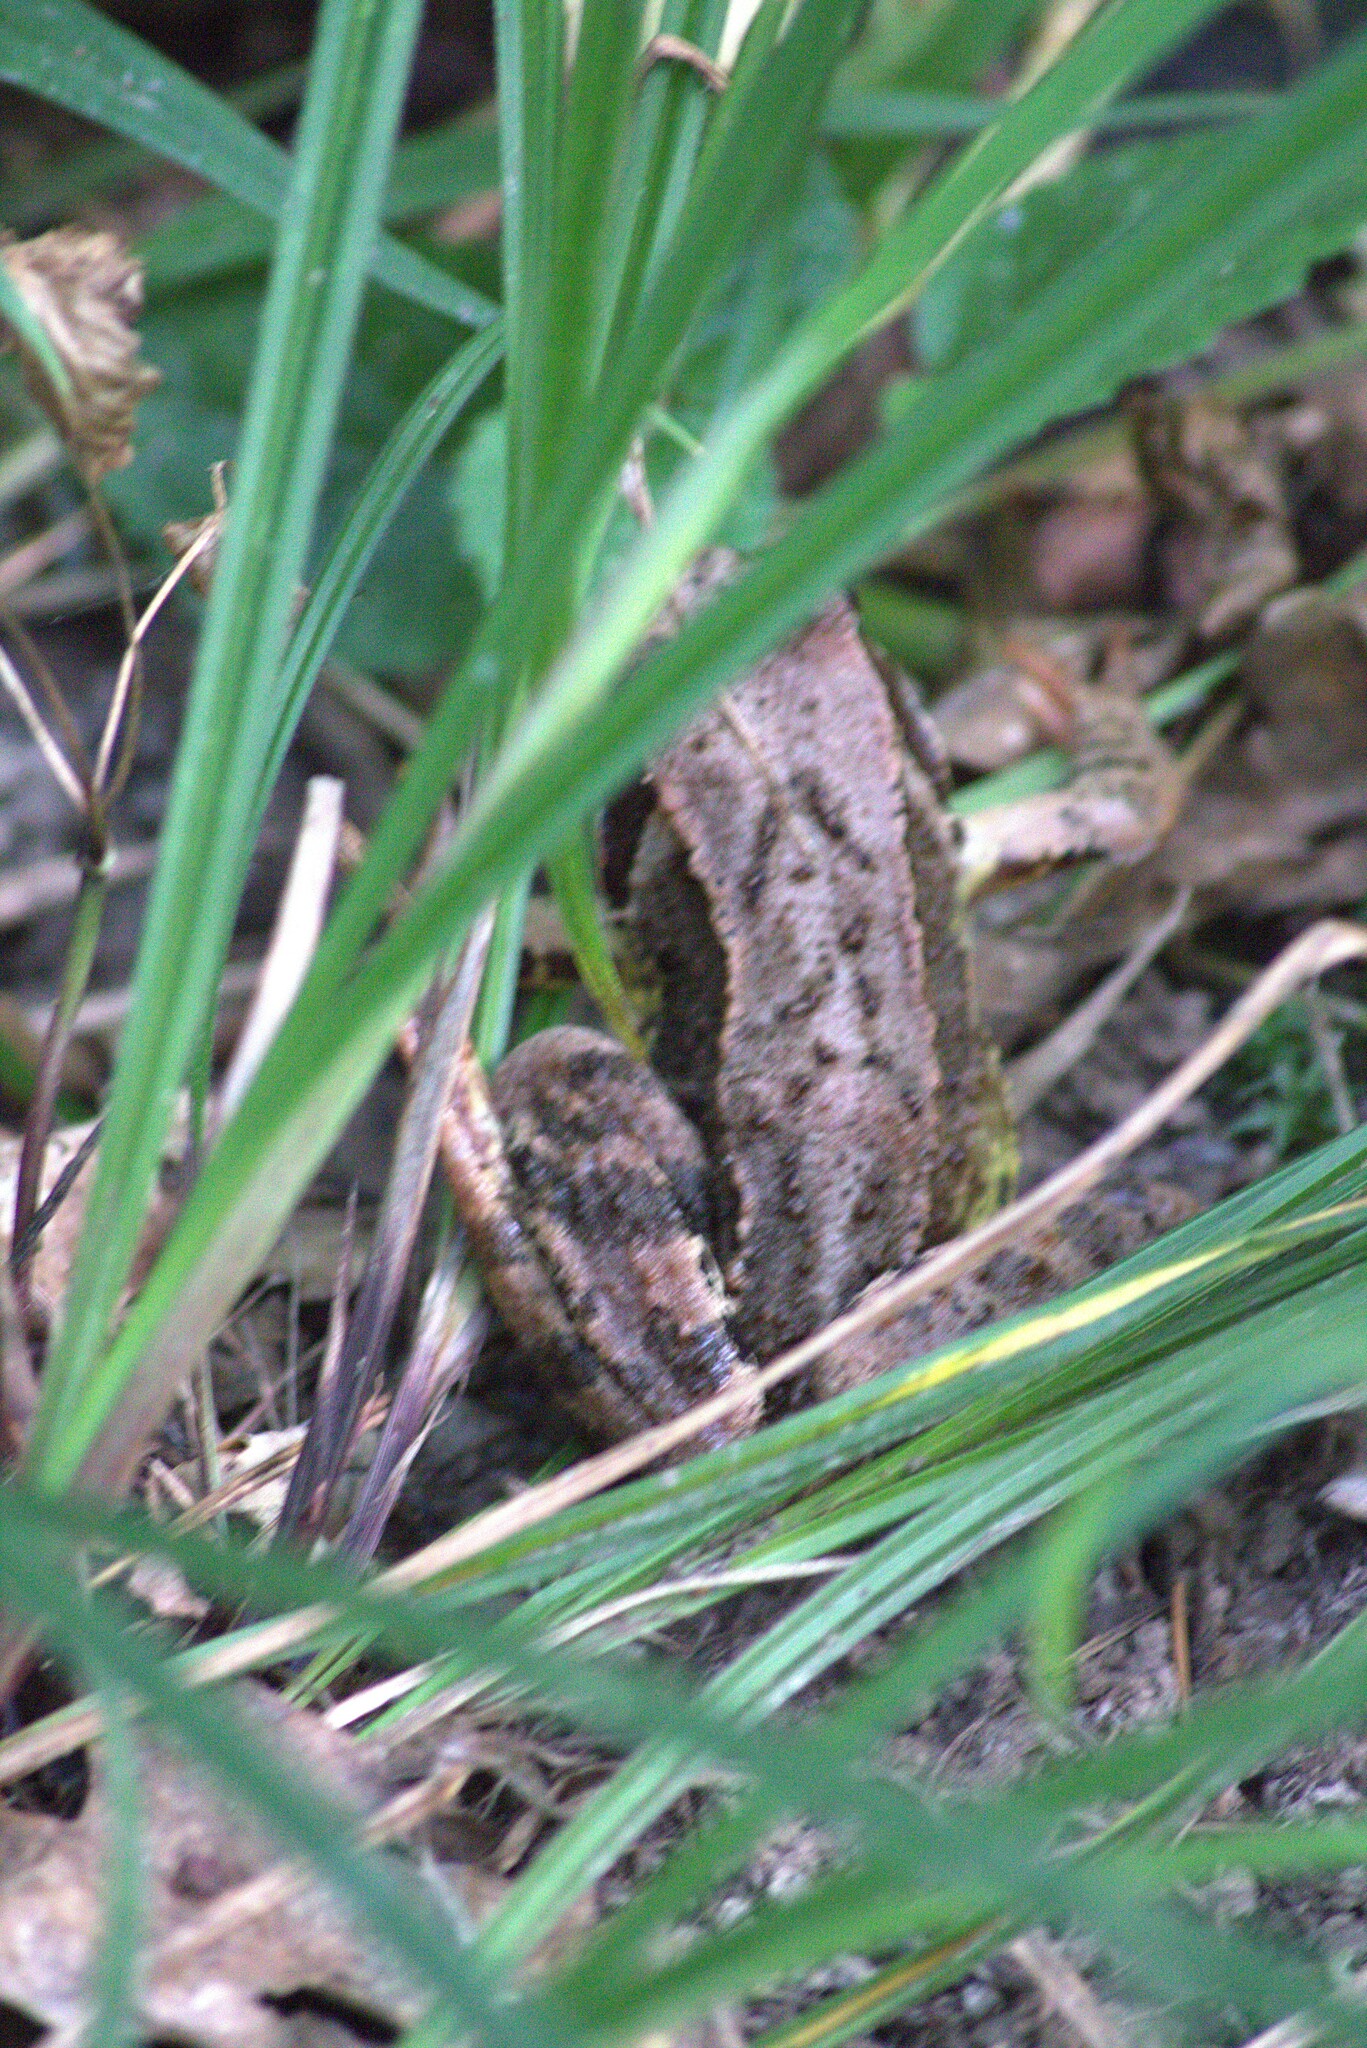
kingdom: Animalia
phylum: Chordata
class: Amphibia
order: Anura
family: Ranidae
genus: Rana
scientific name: Rana temporaria
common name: Common frog
